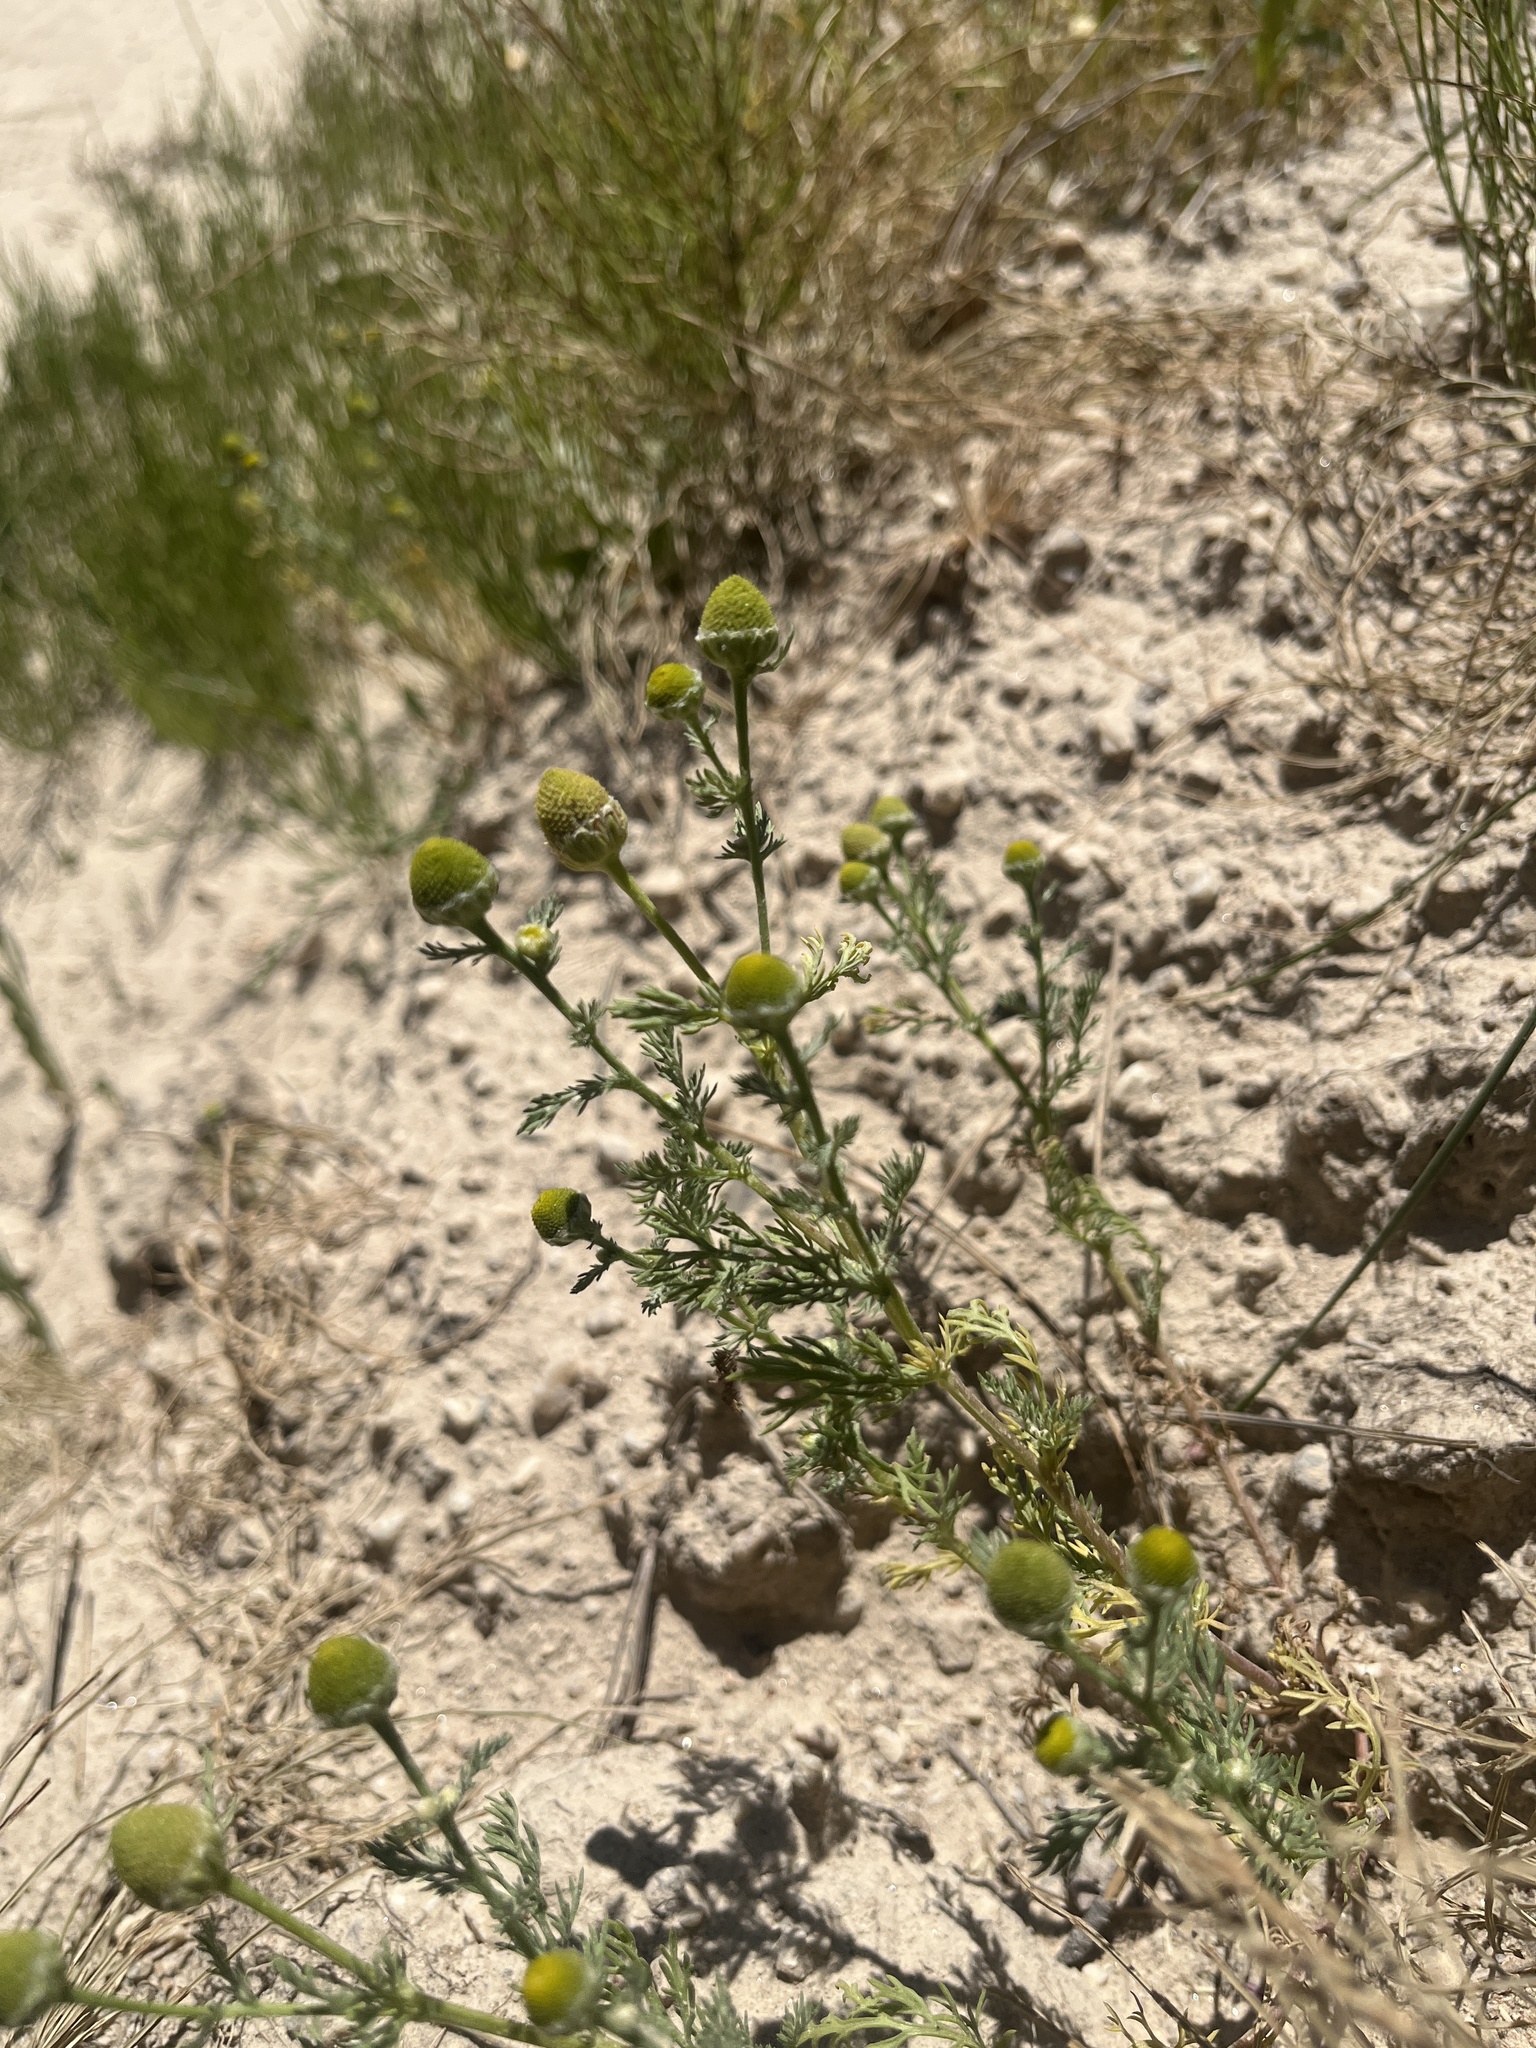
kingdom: Plantae
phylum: Tracheophyta
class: Magnoliopsida
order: Asterales
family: Asteraceae
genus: Matricaria
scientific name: Matricaria discoidea
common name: Disc mayweed
